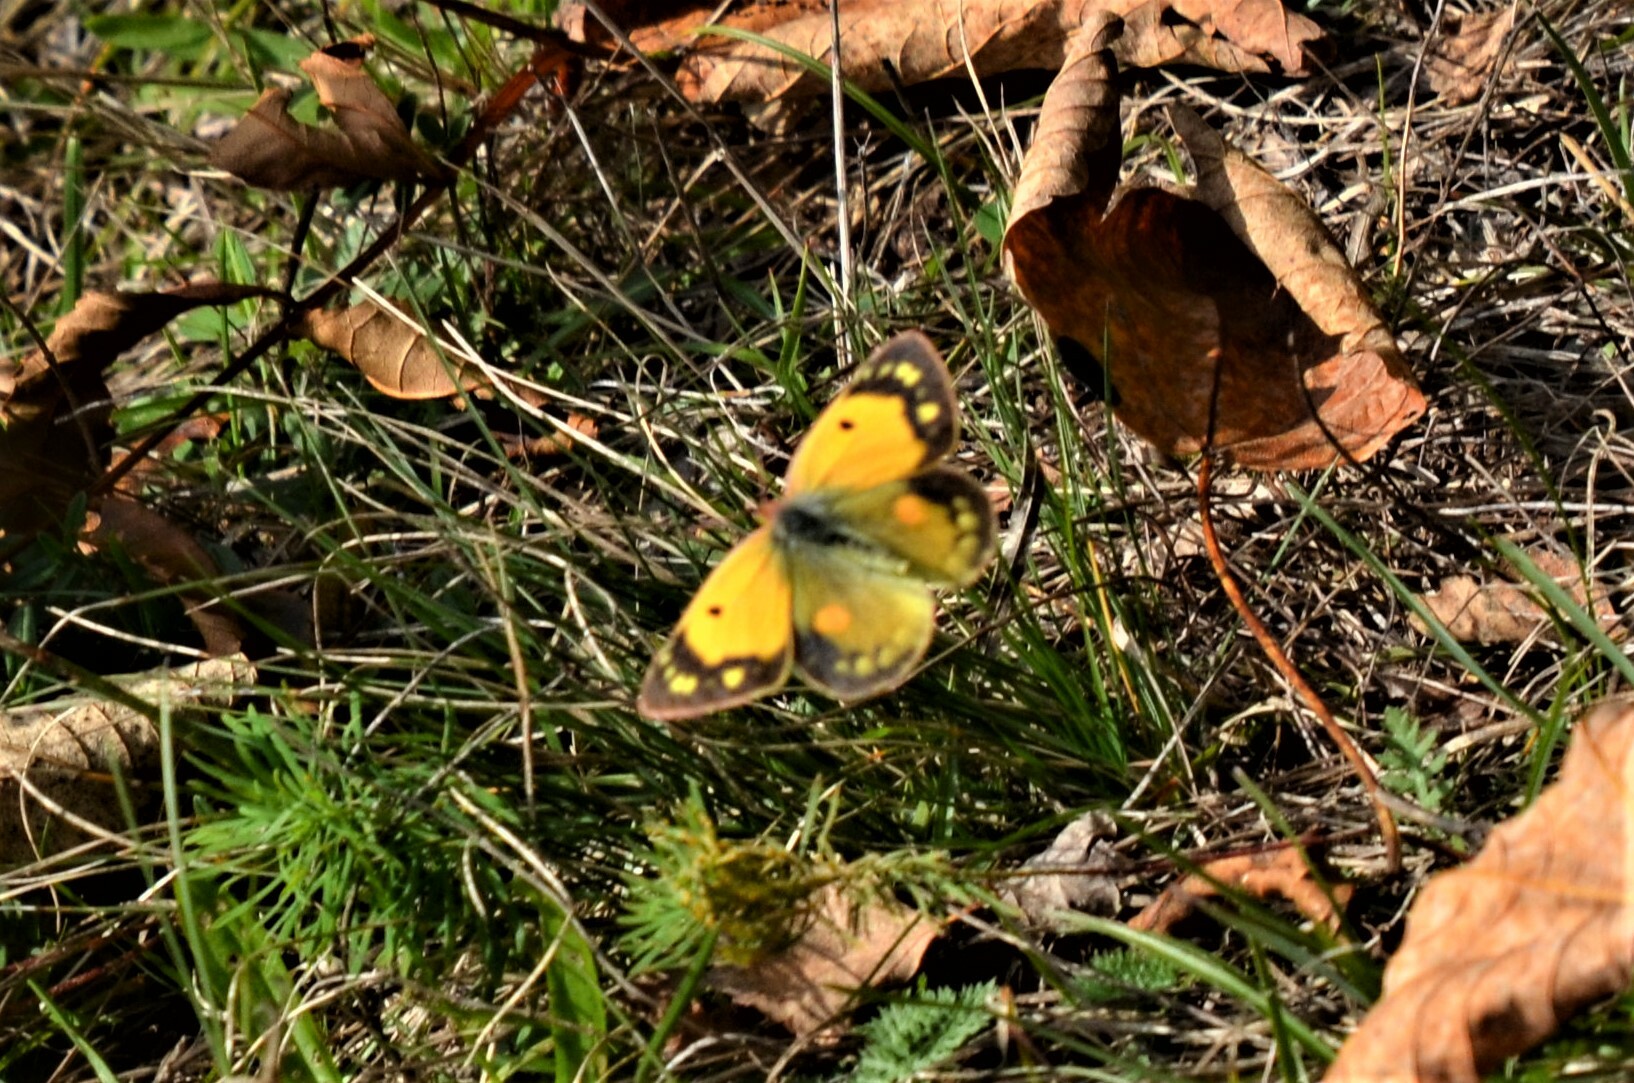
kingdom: Animalia
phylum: Arthropoda
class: Insecta
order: Lepidoptera
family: Pieridae
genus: Colias
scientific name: Colias croceus
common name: Clouded yellow
